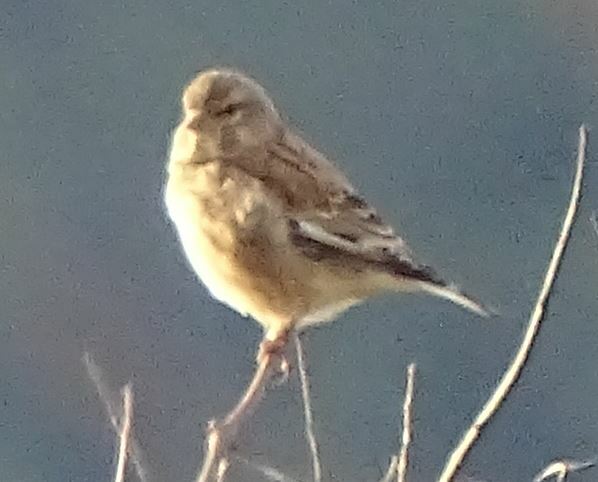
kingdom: Animalia
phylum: Chordata
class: Aves
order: Passeriformes
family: Fringillidae
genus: Linaria
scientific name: Linaria cannabina
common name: Common linnet
